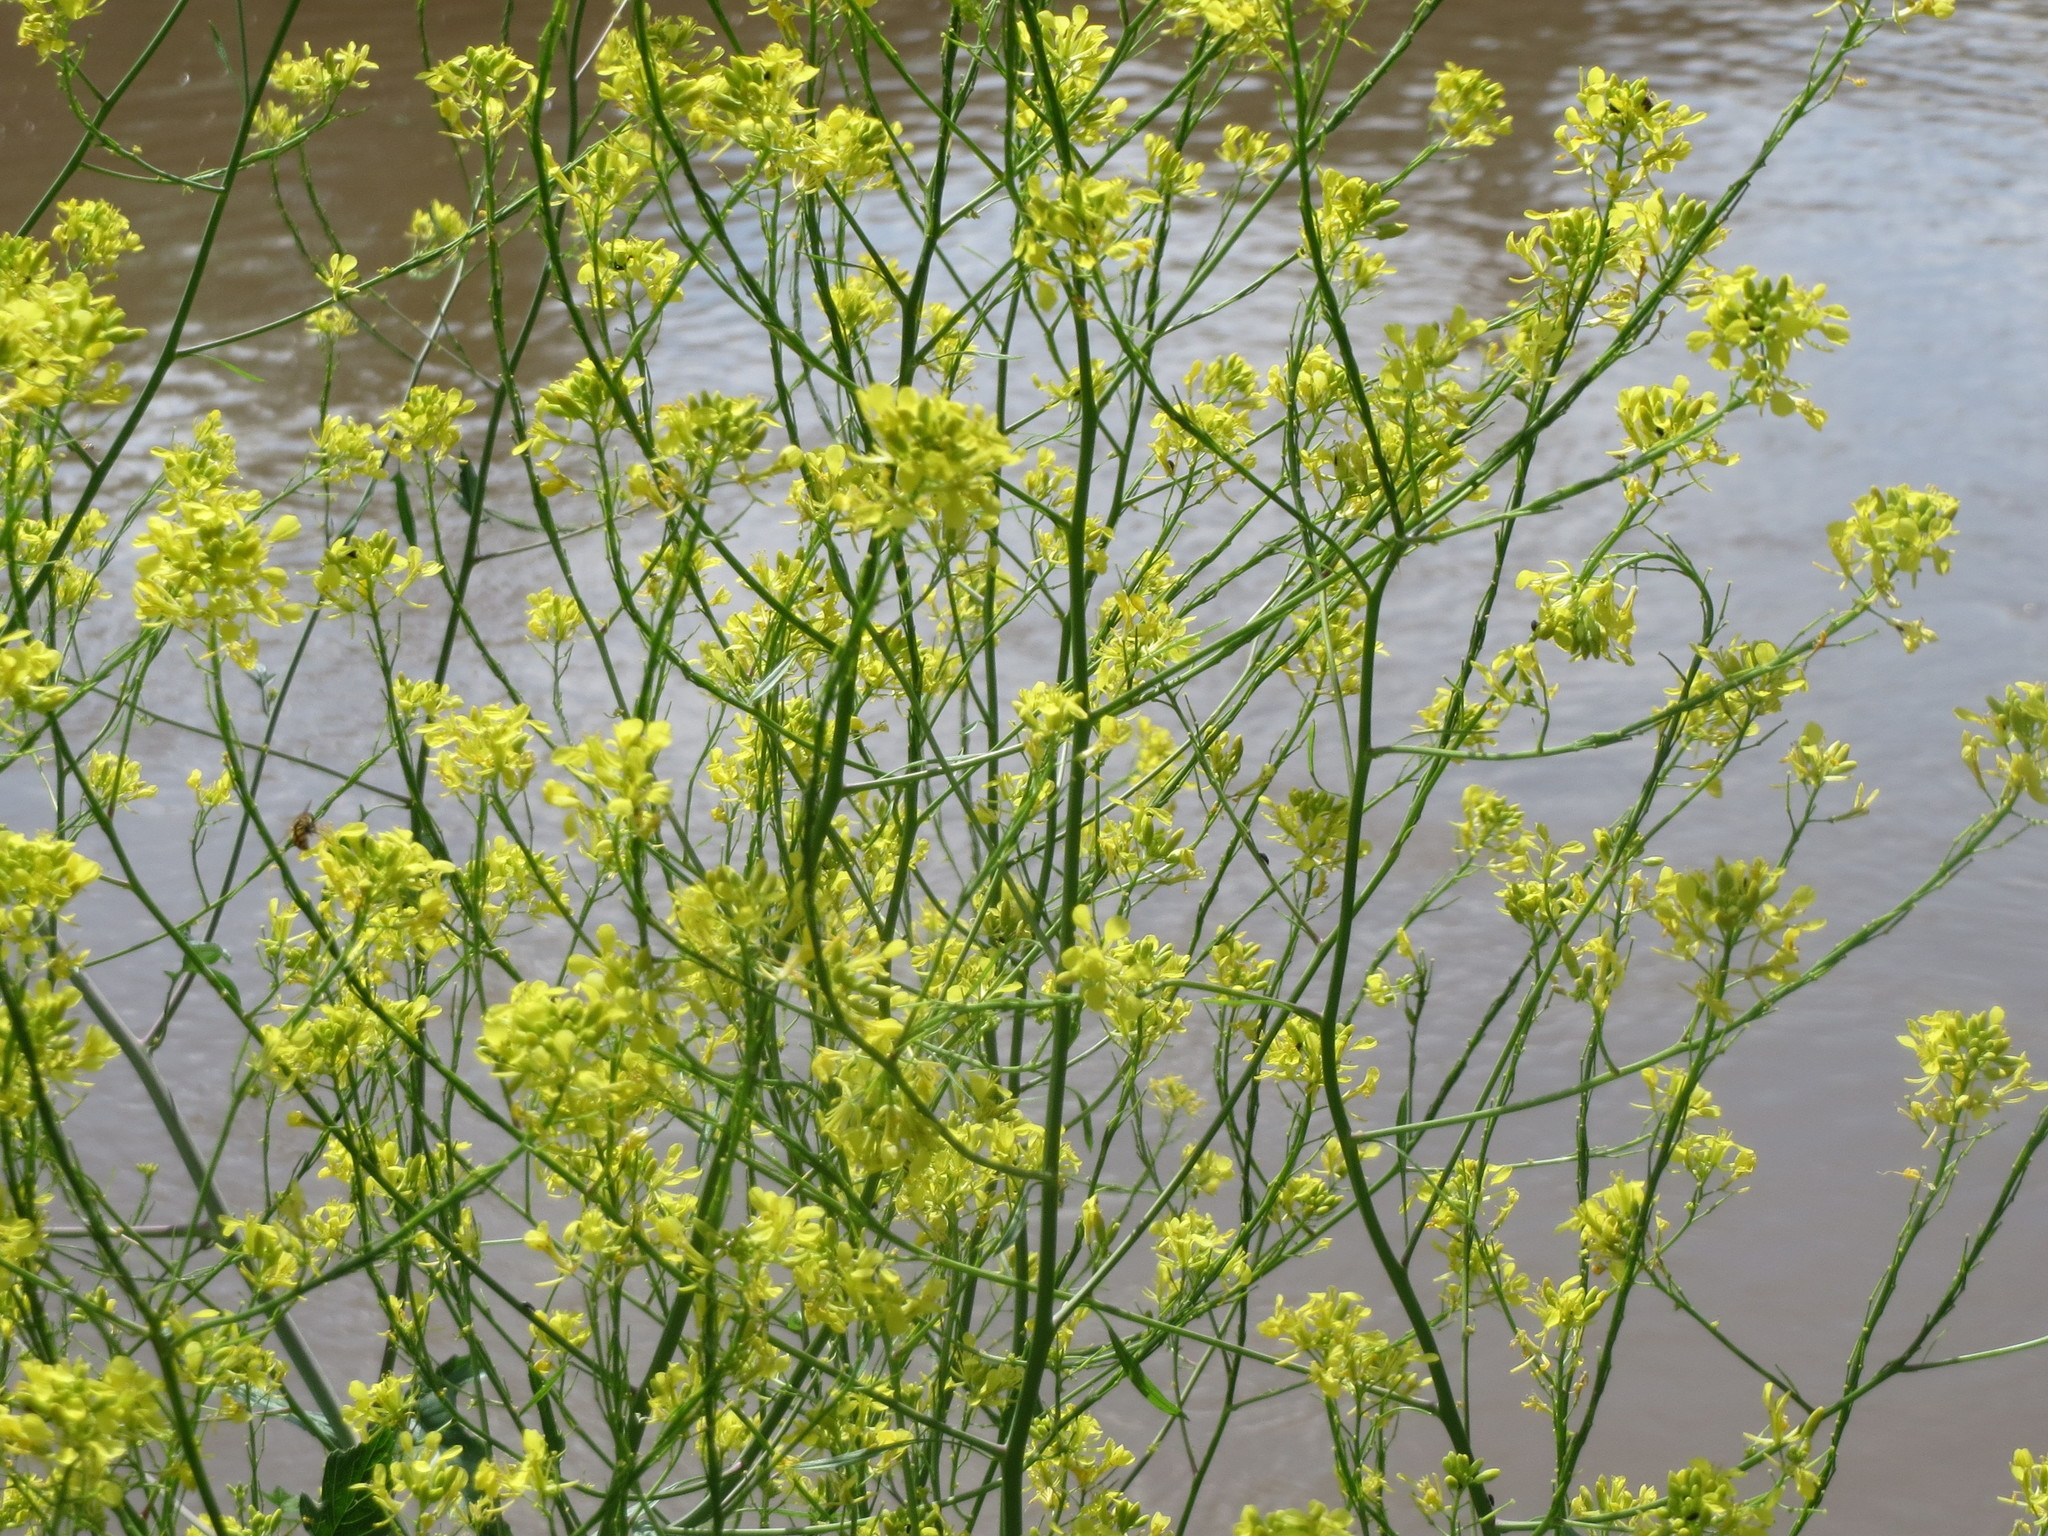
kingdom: Plantae
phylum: Tracheophyta
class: Magnoliopsida
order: Brassicales
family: Brassicaceae
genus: Brassica
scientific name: Brassica nigra
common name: Black mustard
